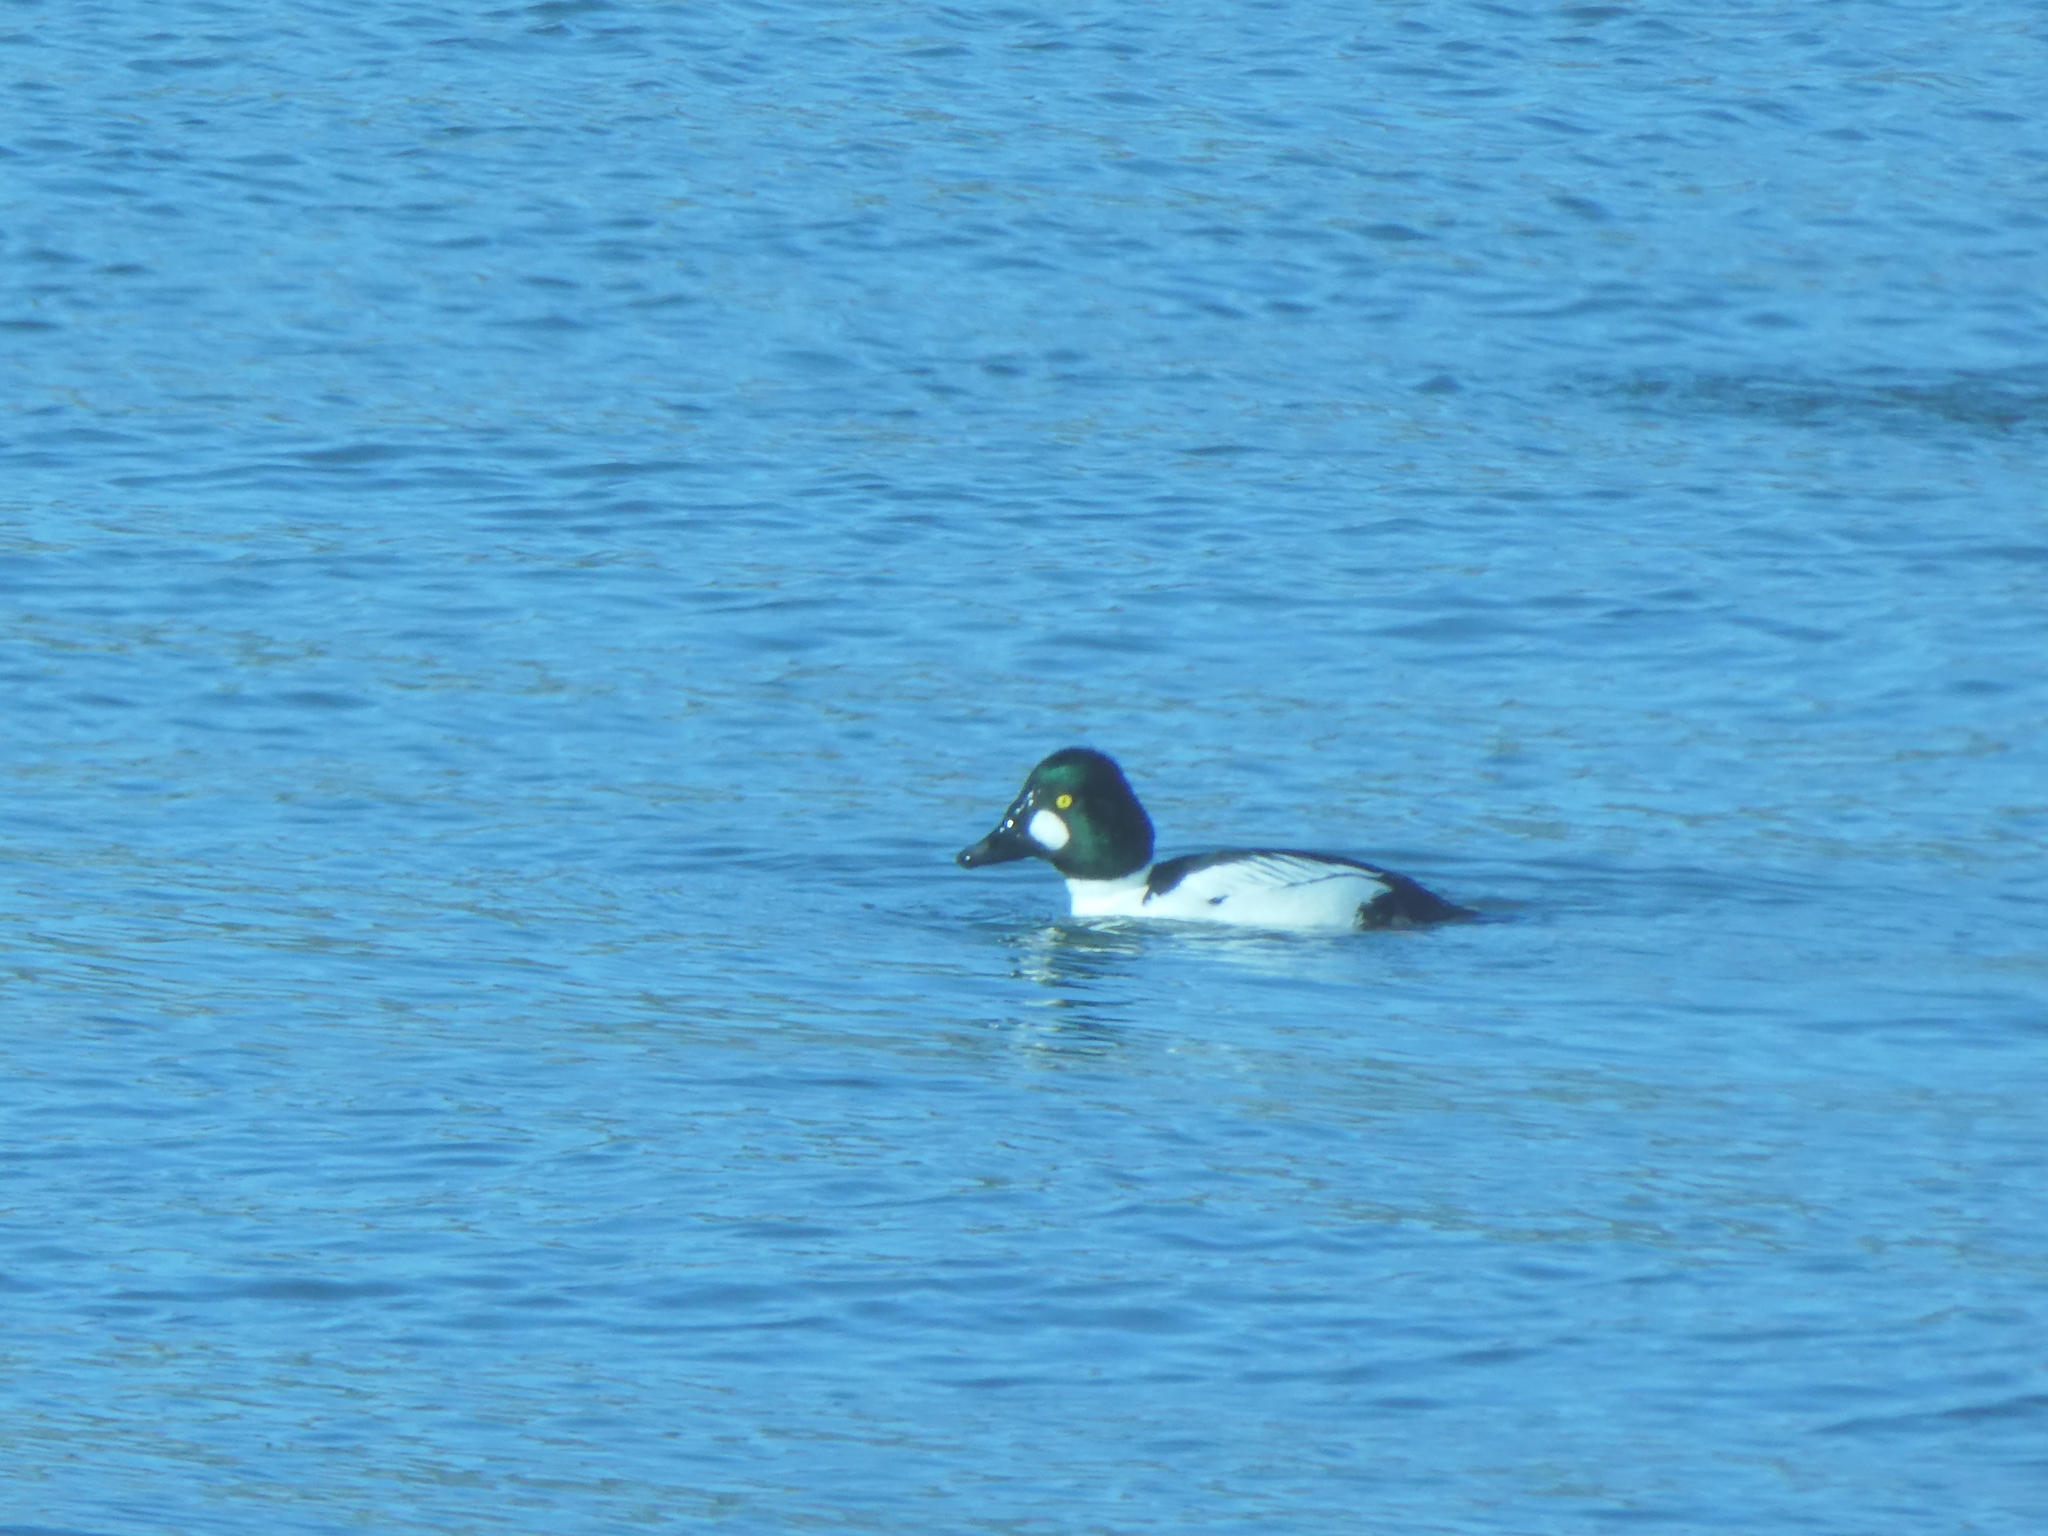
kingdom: Animalia
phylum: Chordata
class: Aves
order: Anseriformes
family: Anatidae
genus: Bucephala
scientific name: Bucephala clangula
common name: Common goldeneye
